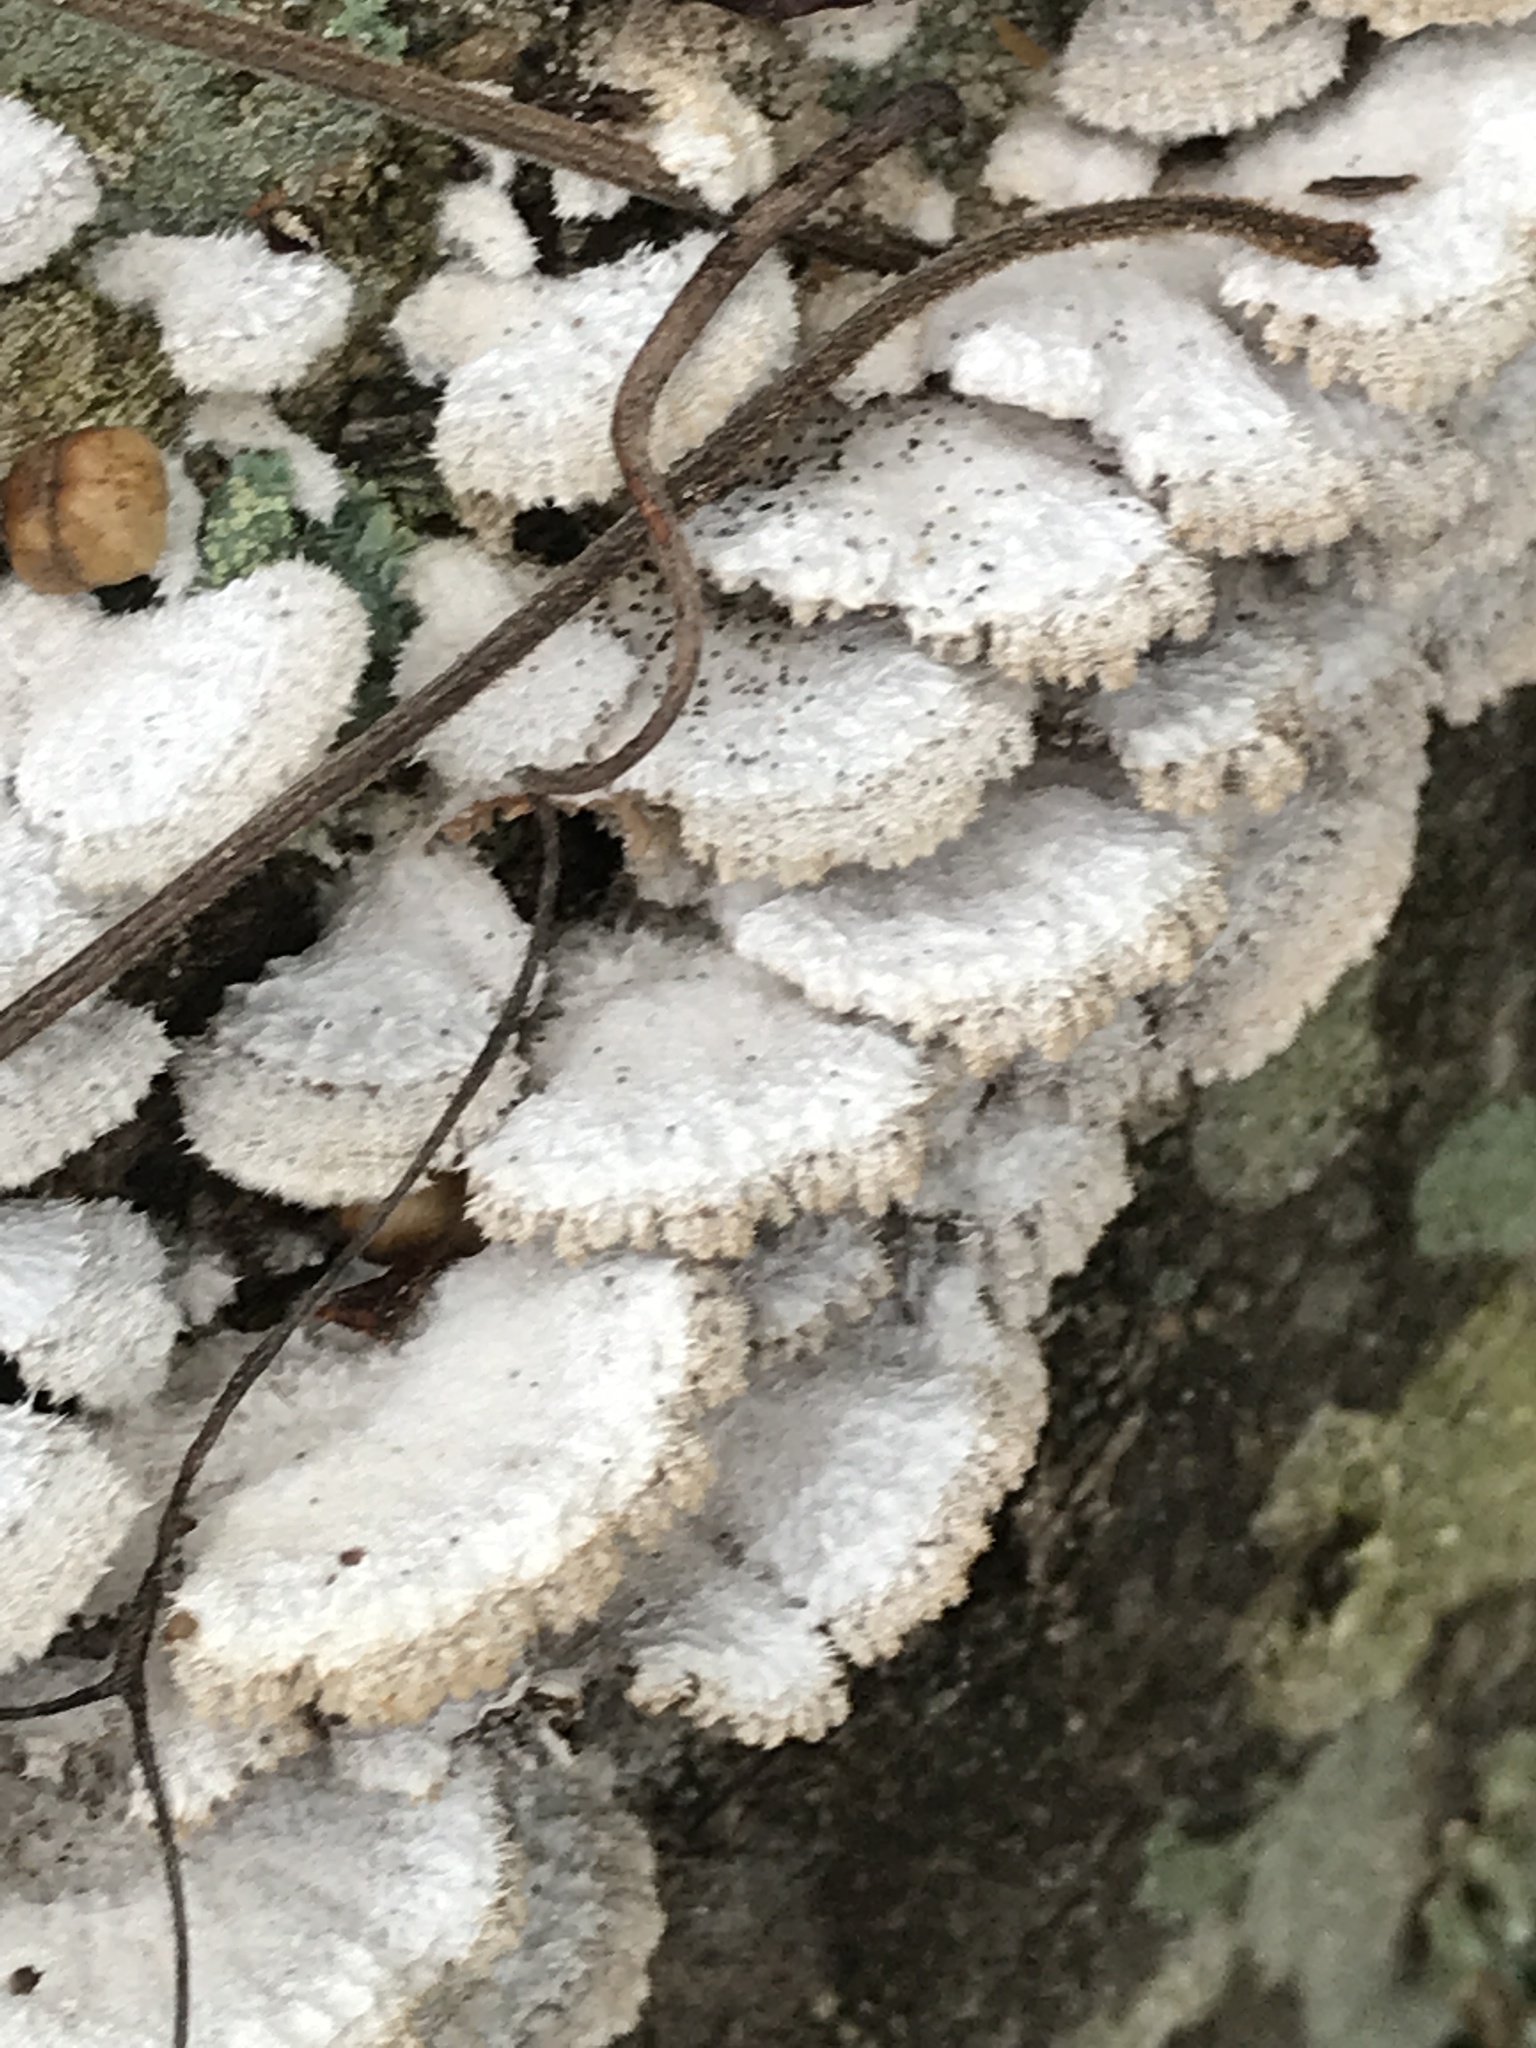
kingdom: Fungi
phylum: Basidiomycota
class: Agaricomycetes
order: Agaricales
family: Schizophyllaceae
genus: Schizophyllum
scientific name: Schizophyllum commune
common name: Common porecrust
